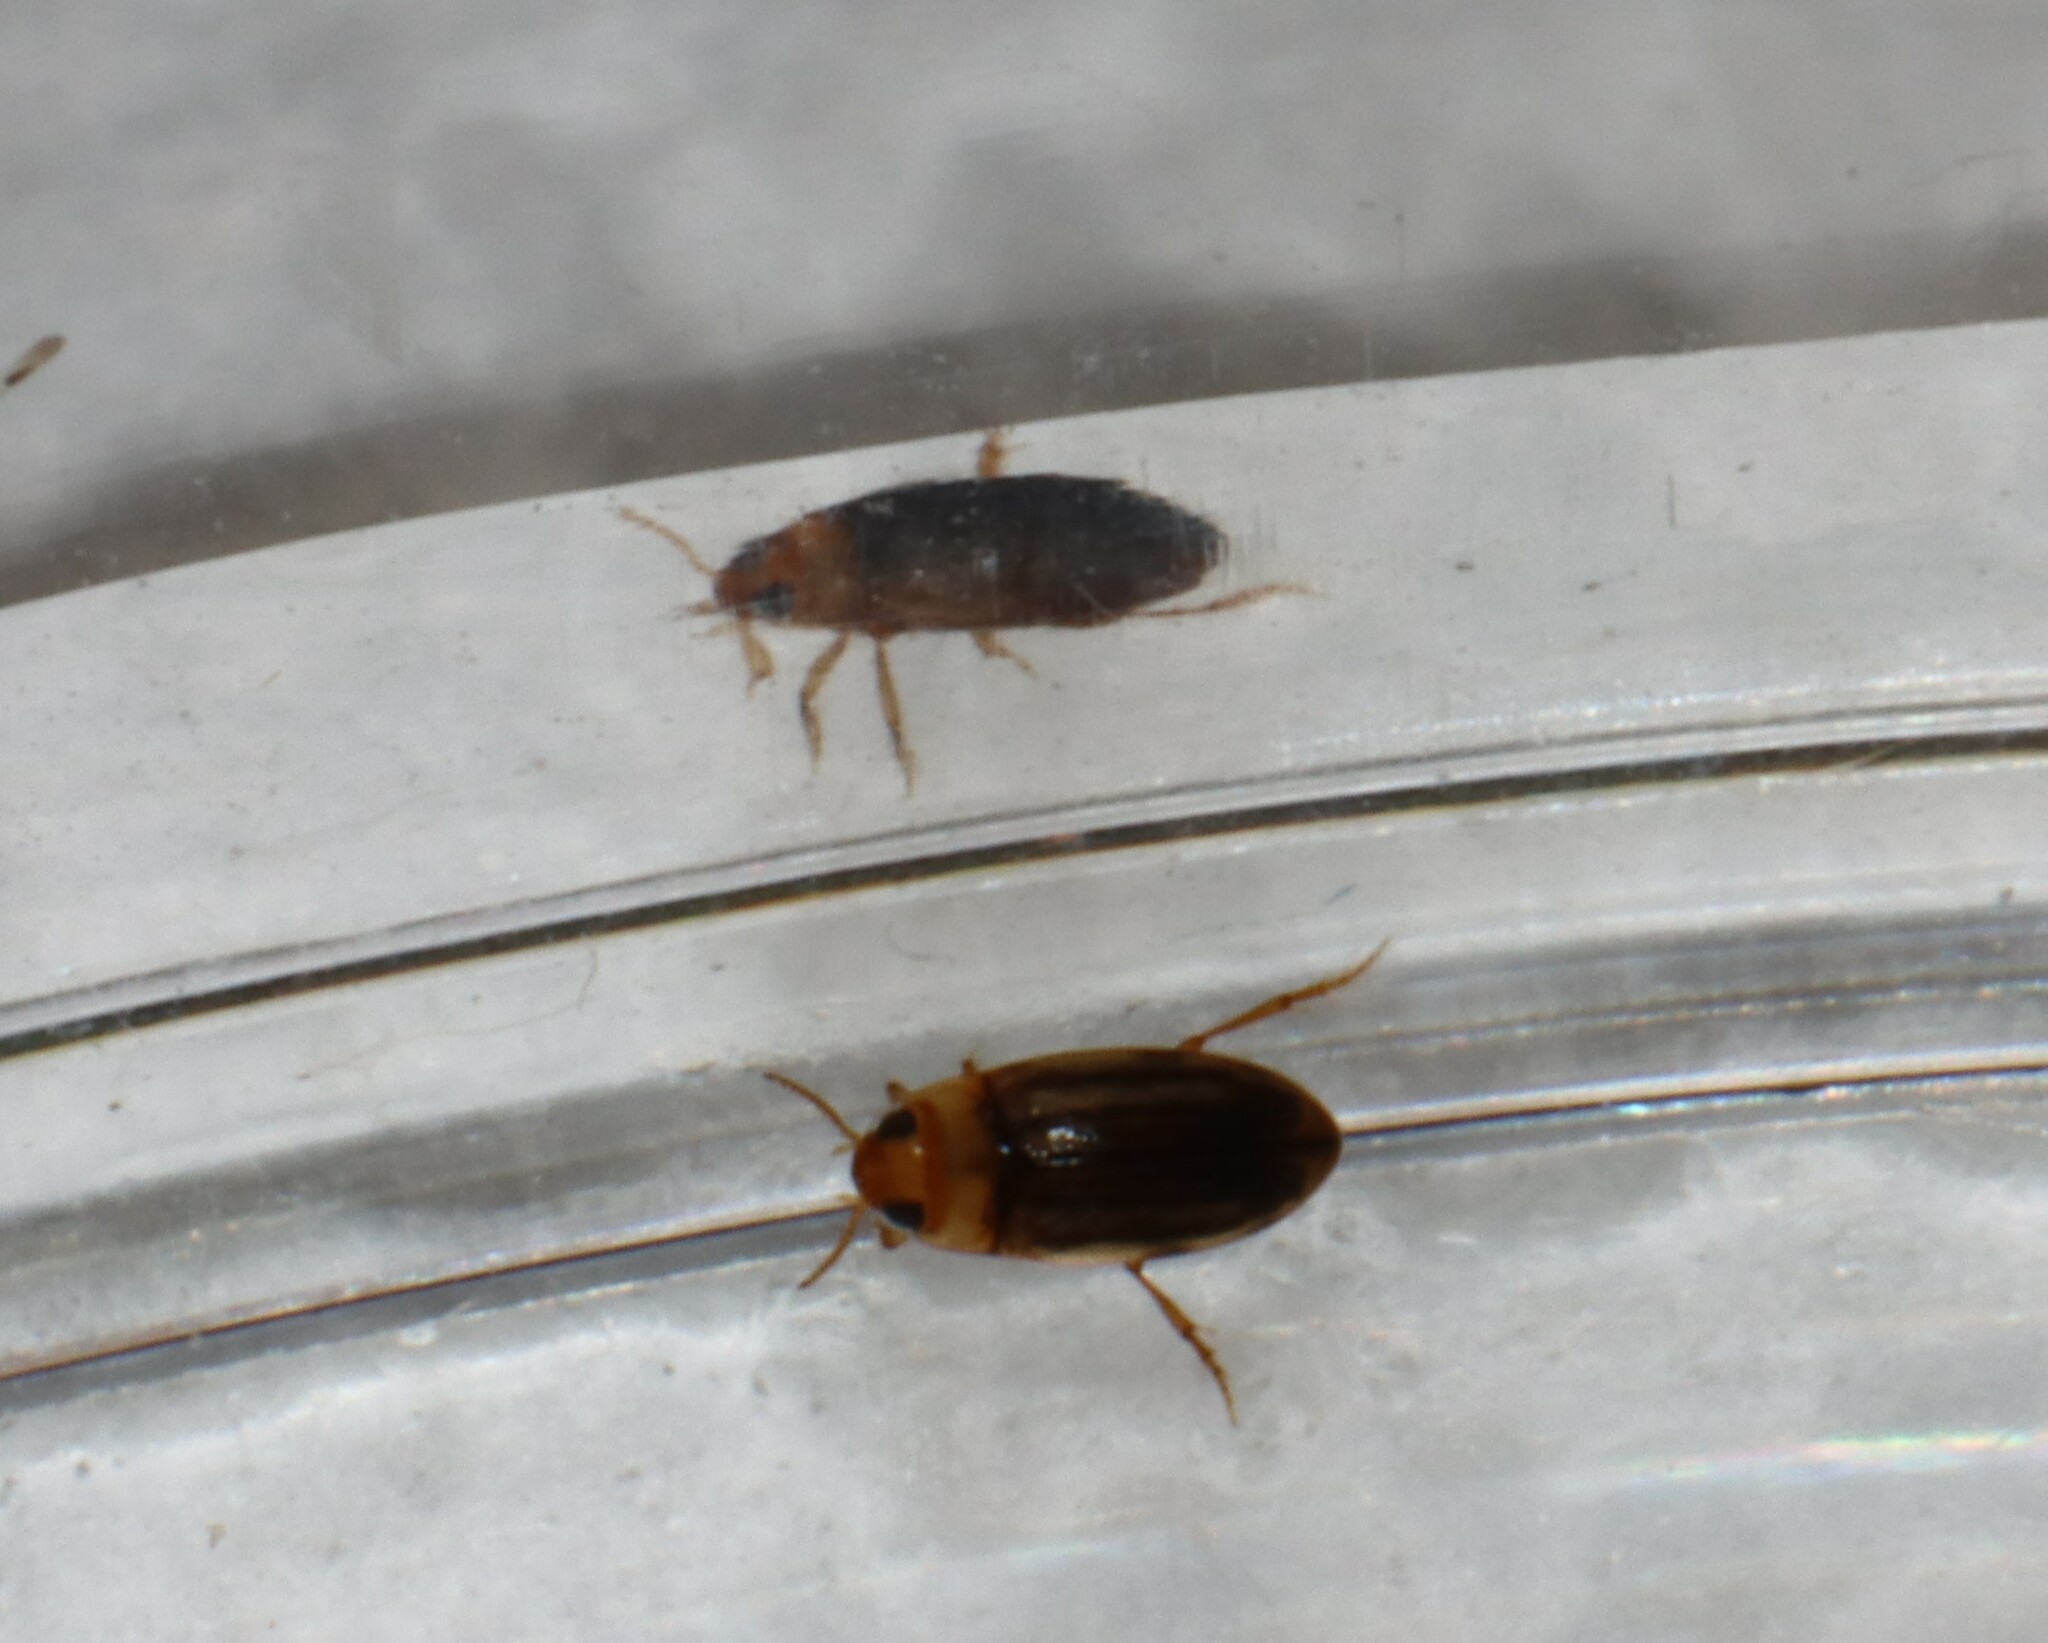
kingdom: Animalia
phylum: Arthropoda
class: Insecta
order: Coleoptera
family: Dytiscidae
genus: Neobidessus
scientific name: Neobidessus pullus
